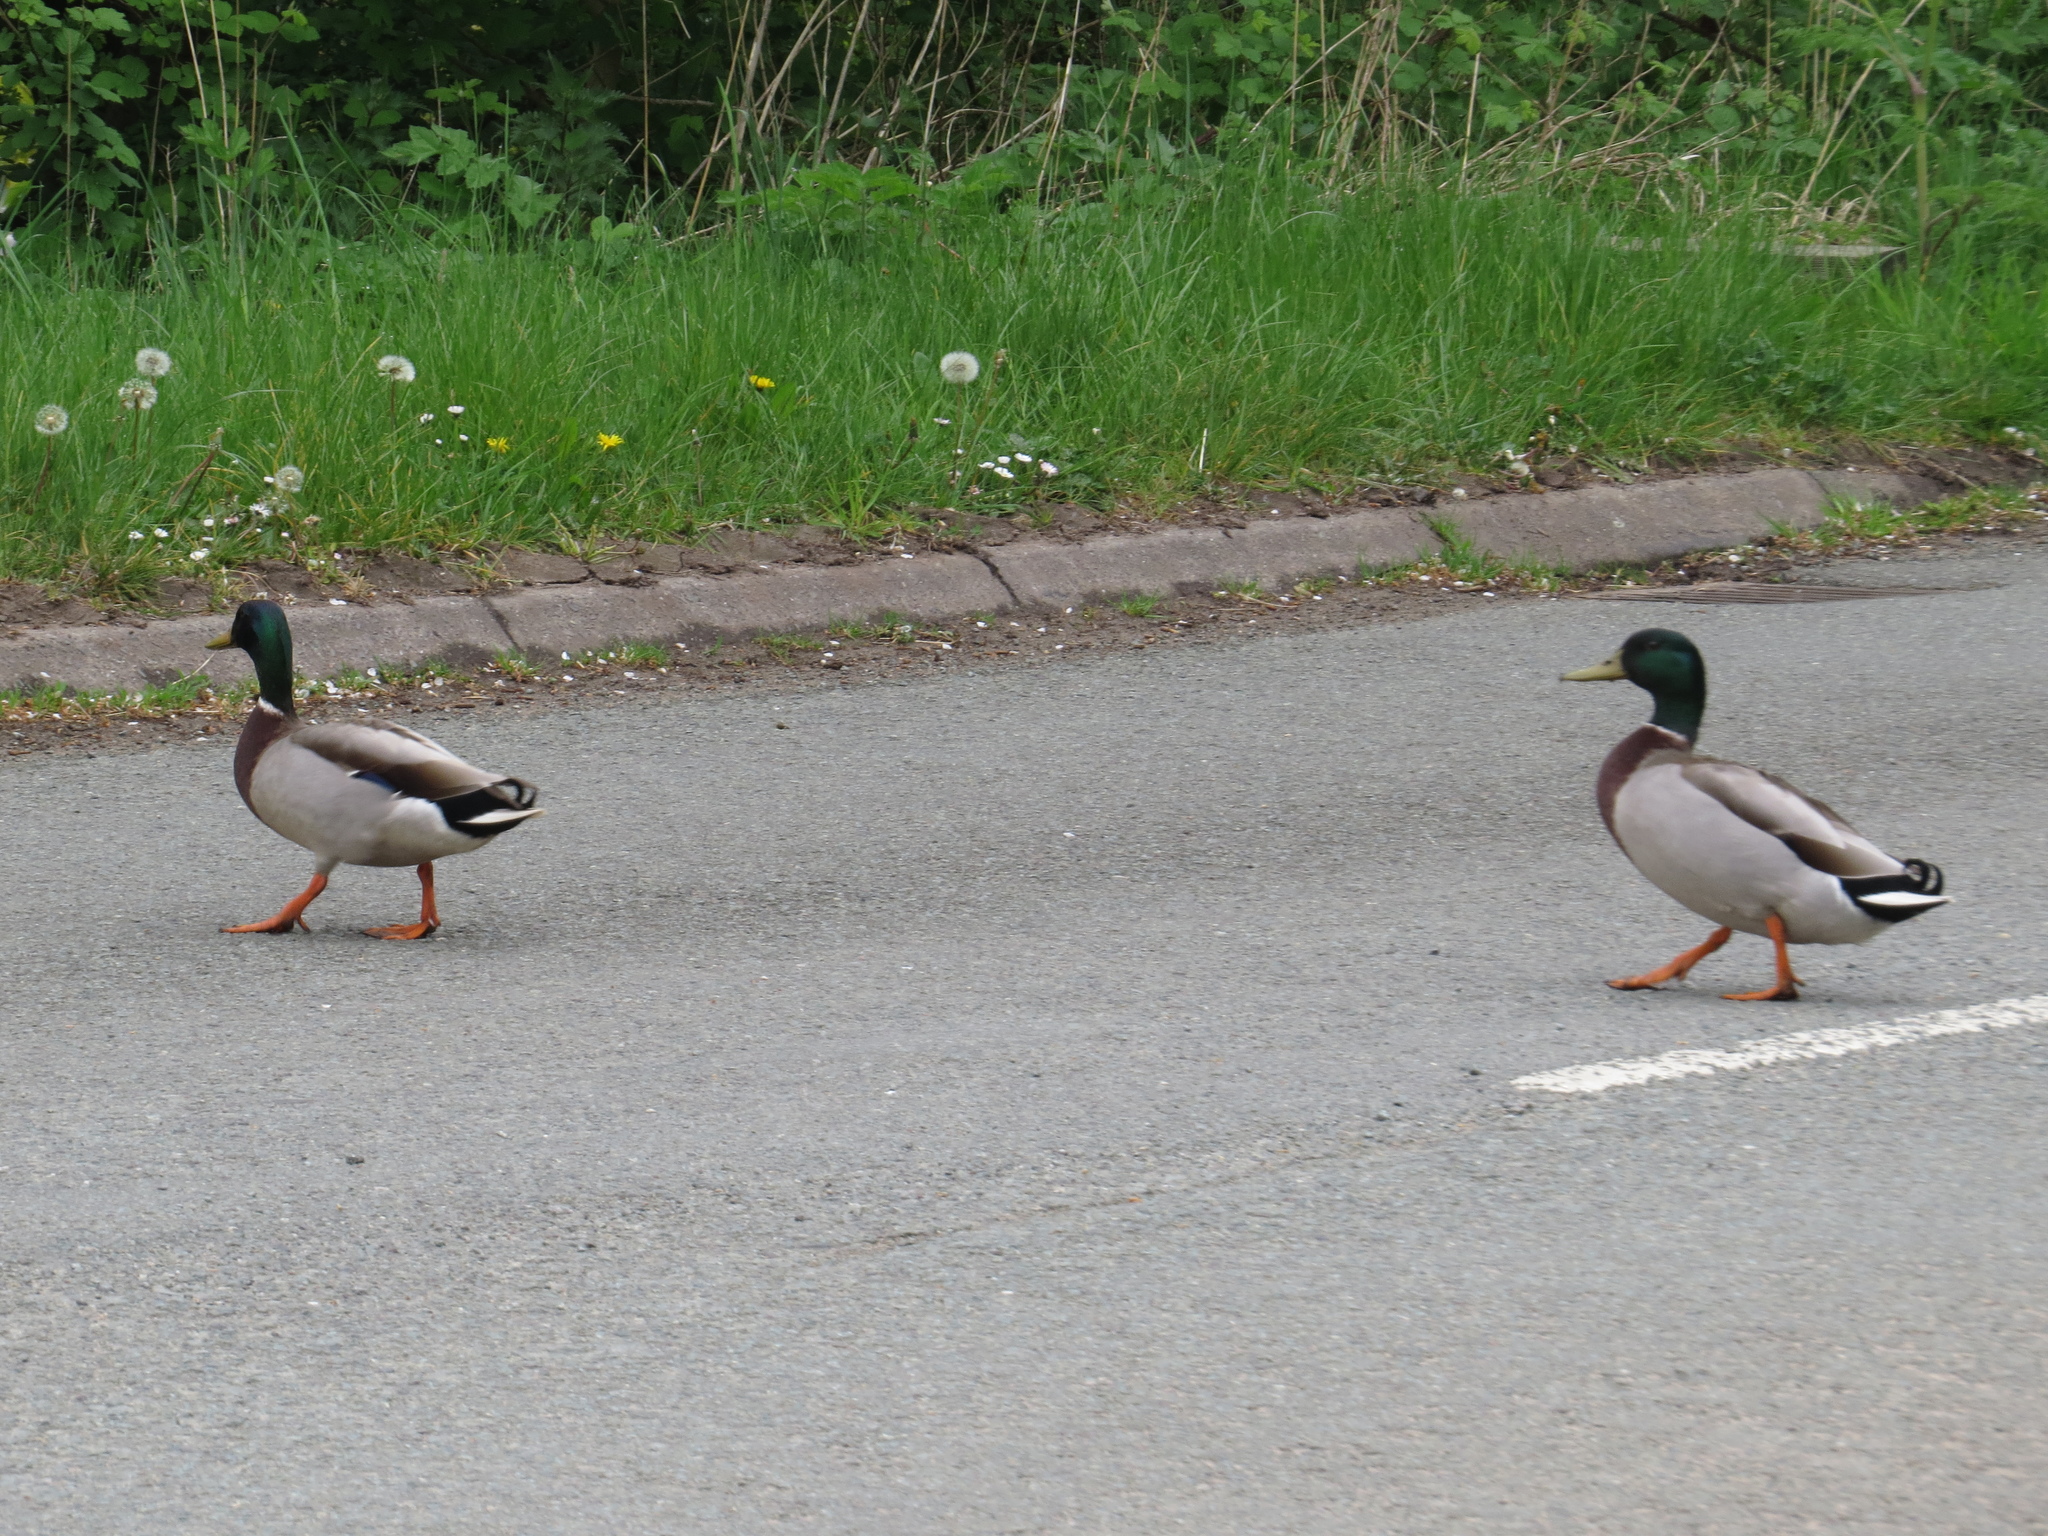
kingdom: Animalia
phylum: Chordata
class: Aves
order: Anseriformes
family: Anatidae
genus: Anas
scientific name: Anas platyrhynchos
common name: Mallard
